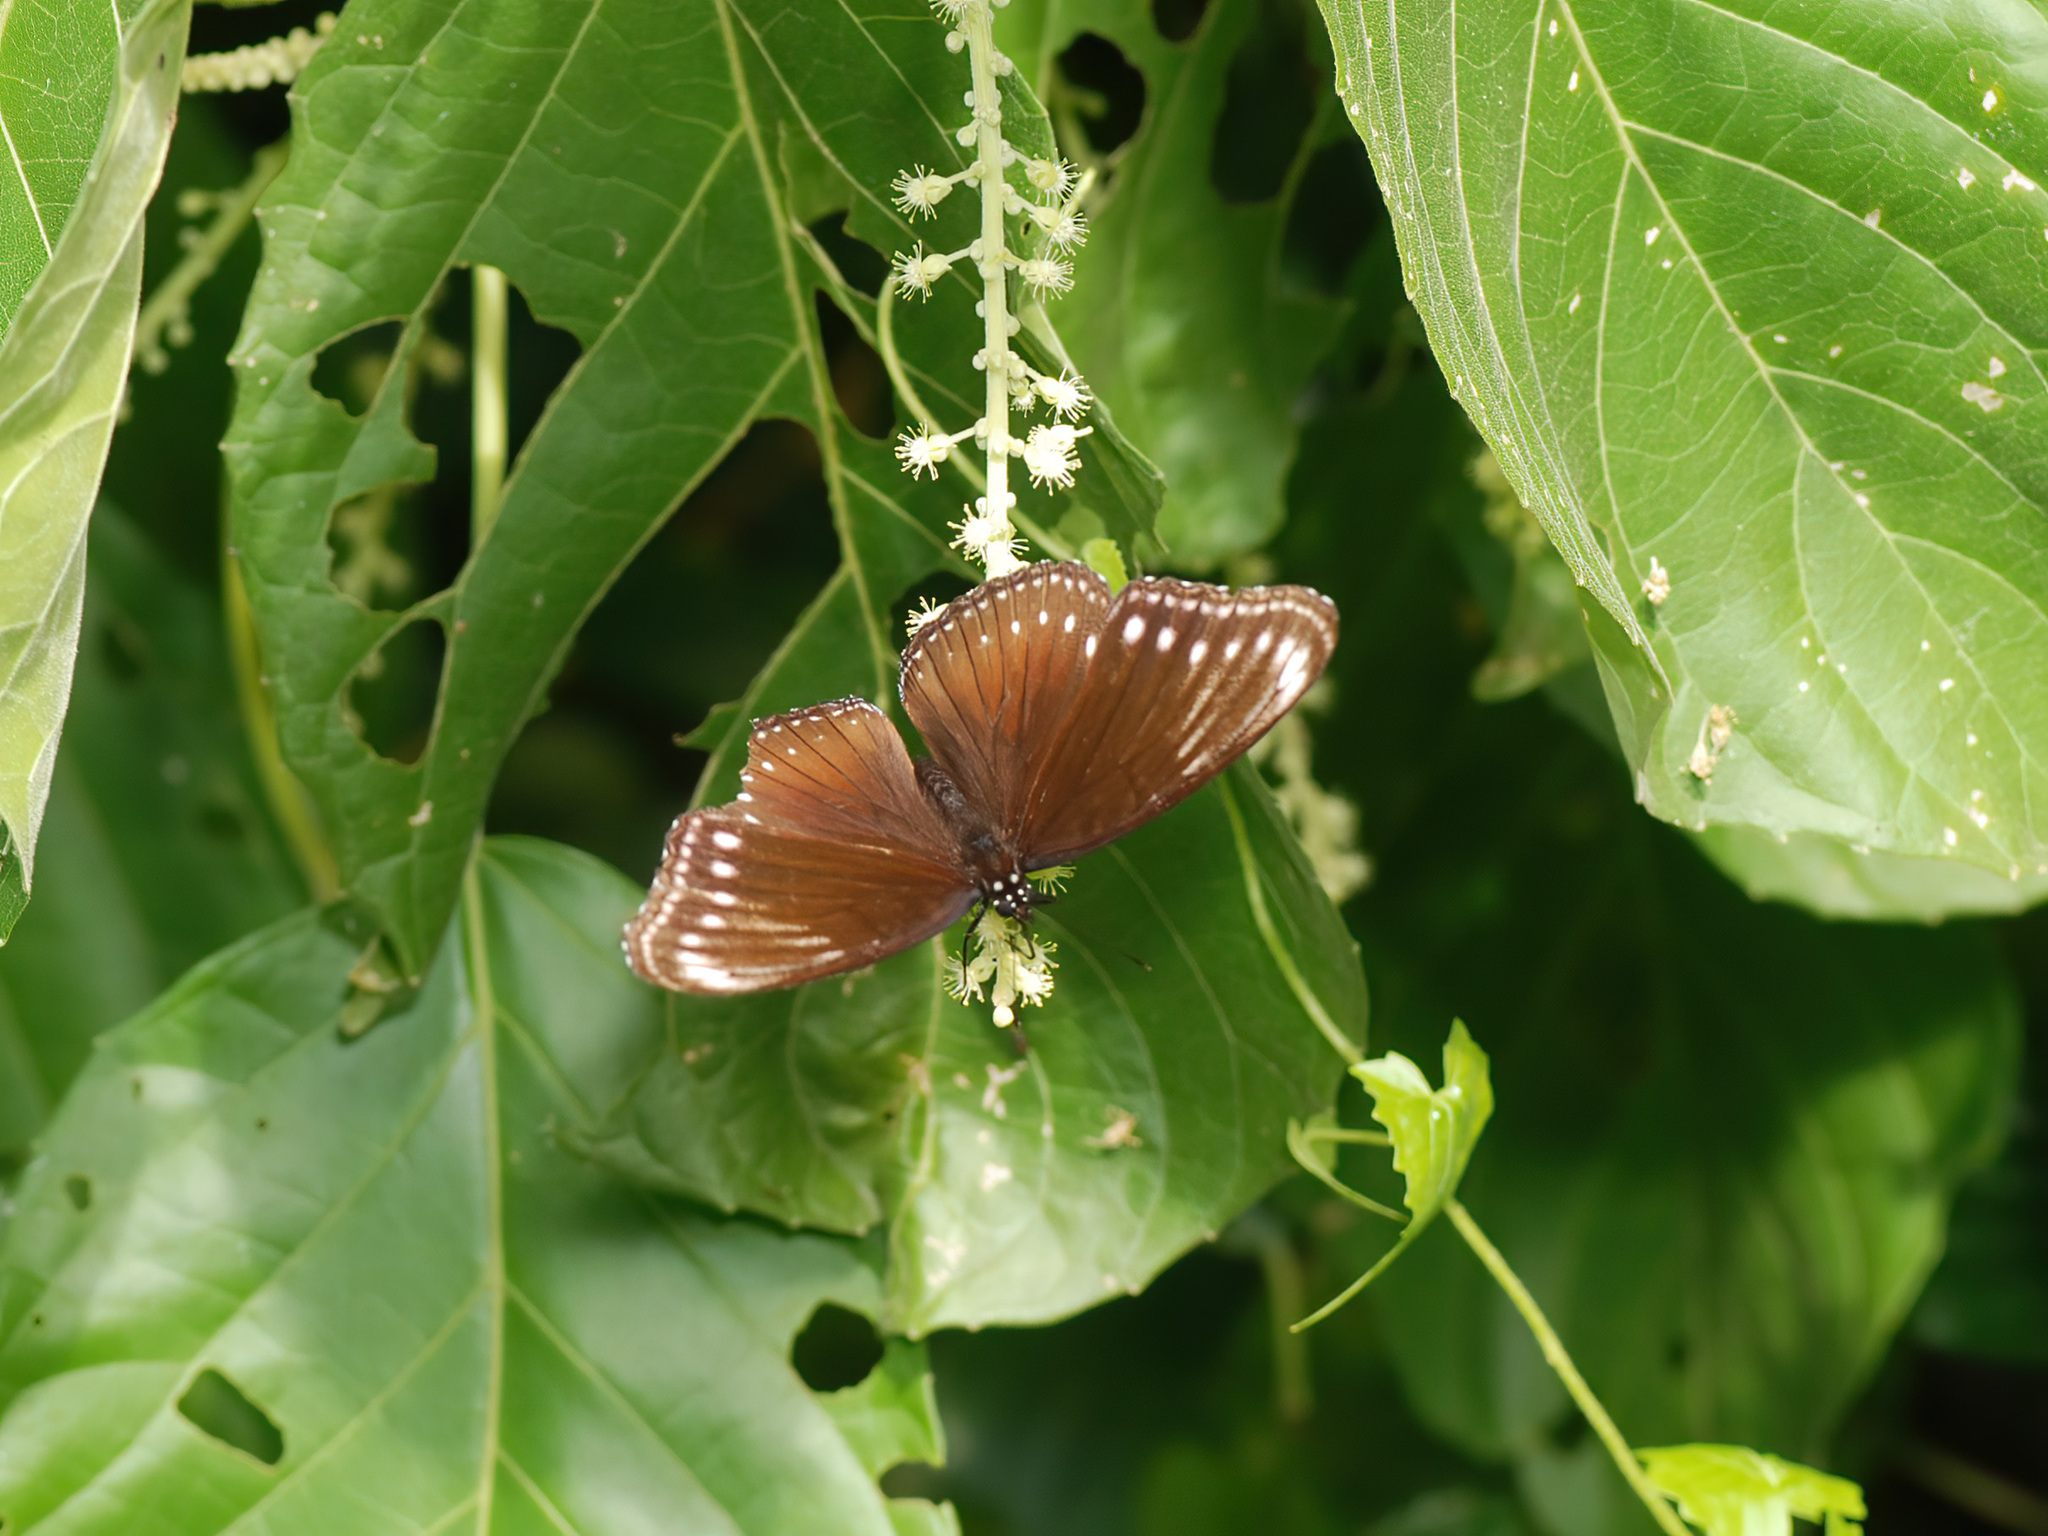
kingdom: Animalia
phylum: Arthropoda
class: Insecta
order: Lepidoptera
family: Nymphalidae
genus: Hypolimnas
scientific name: Hypolimnas anomala
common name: Malayan eggfly
